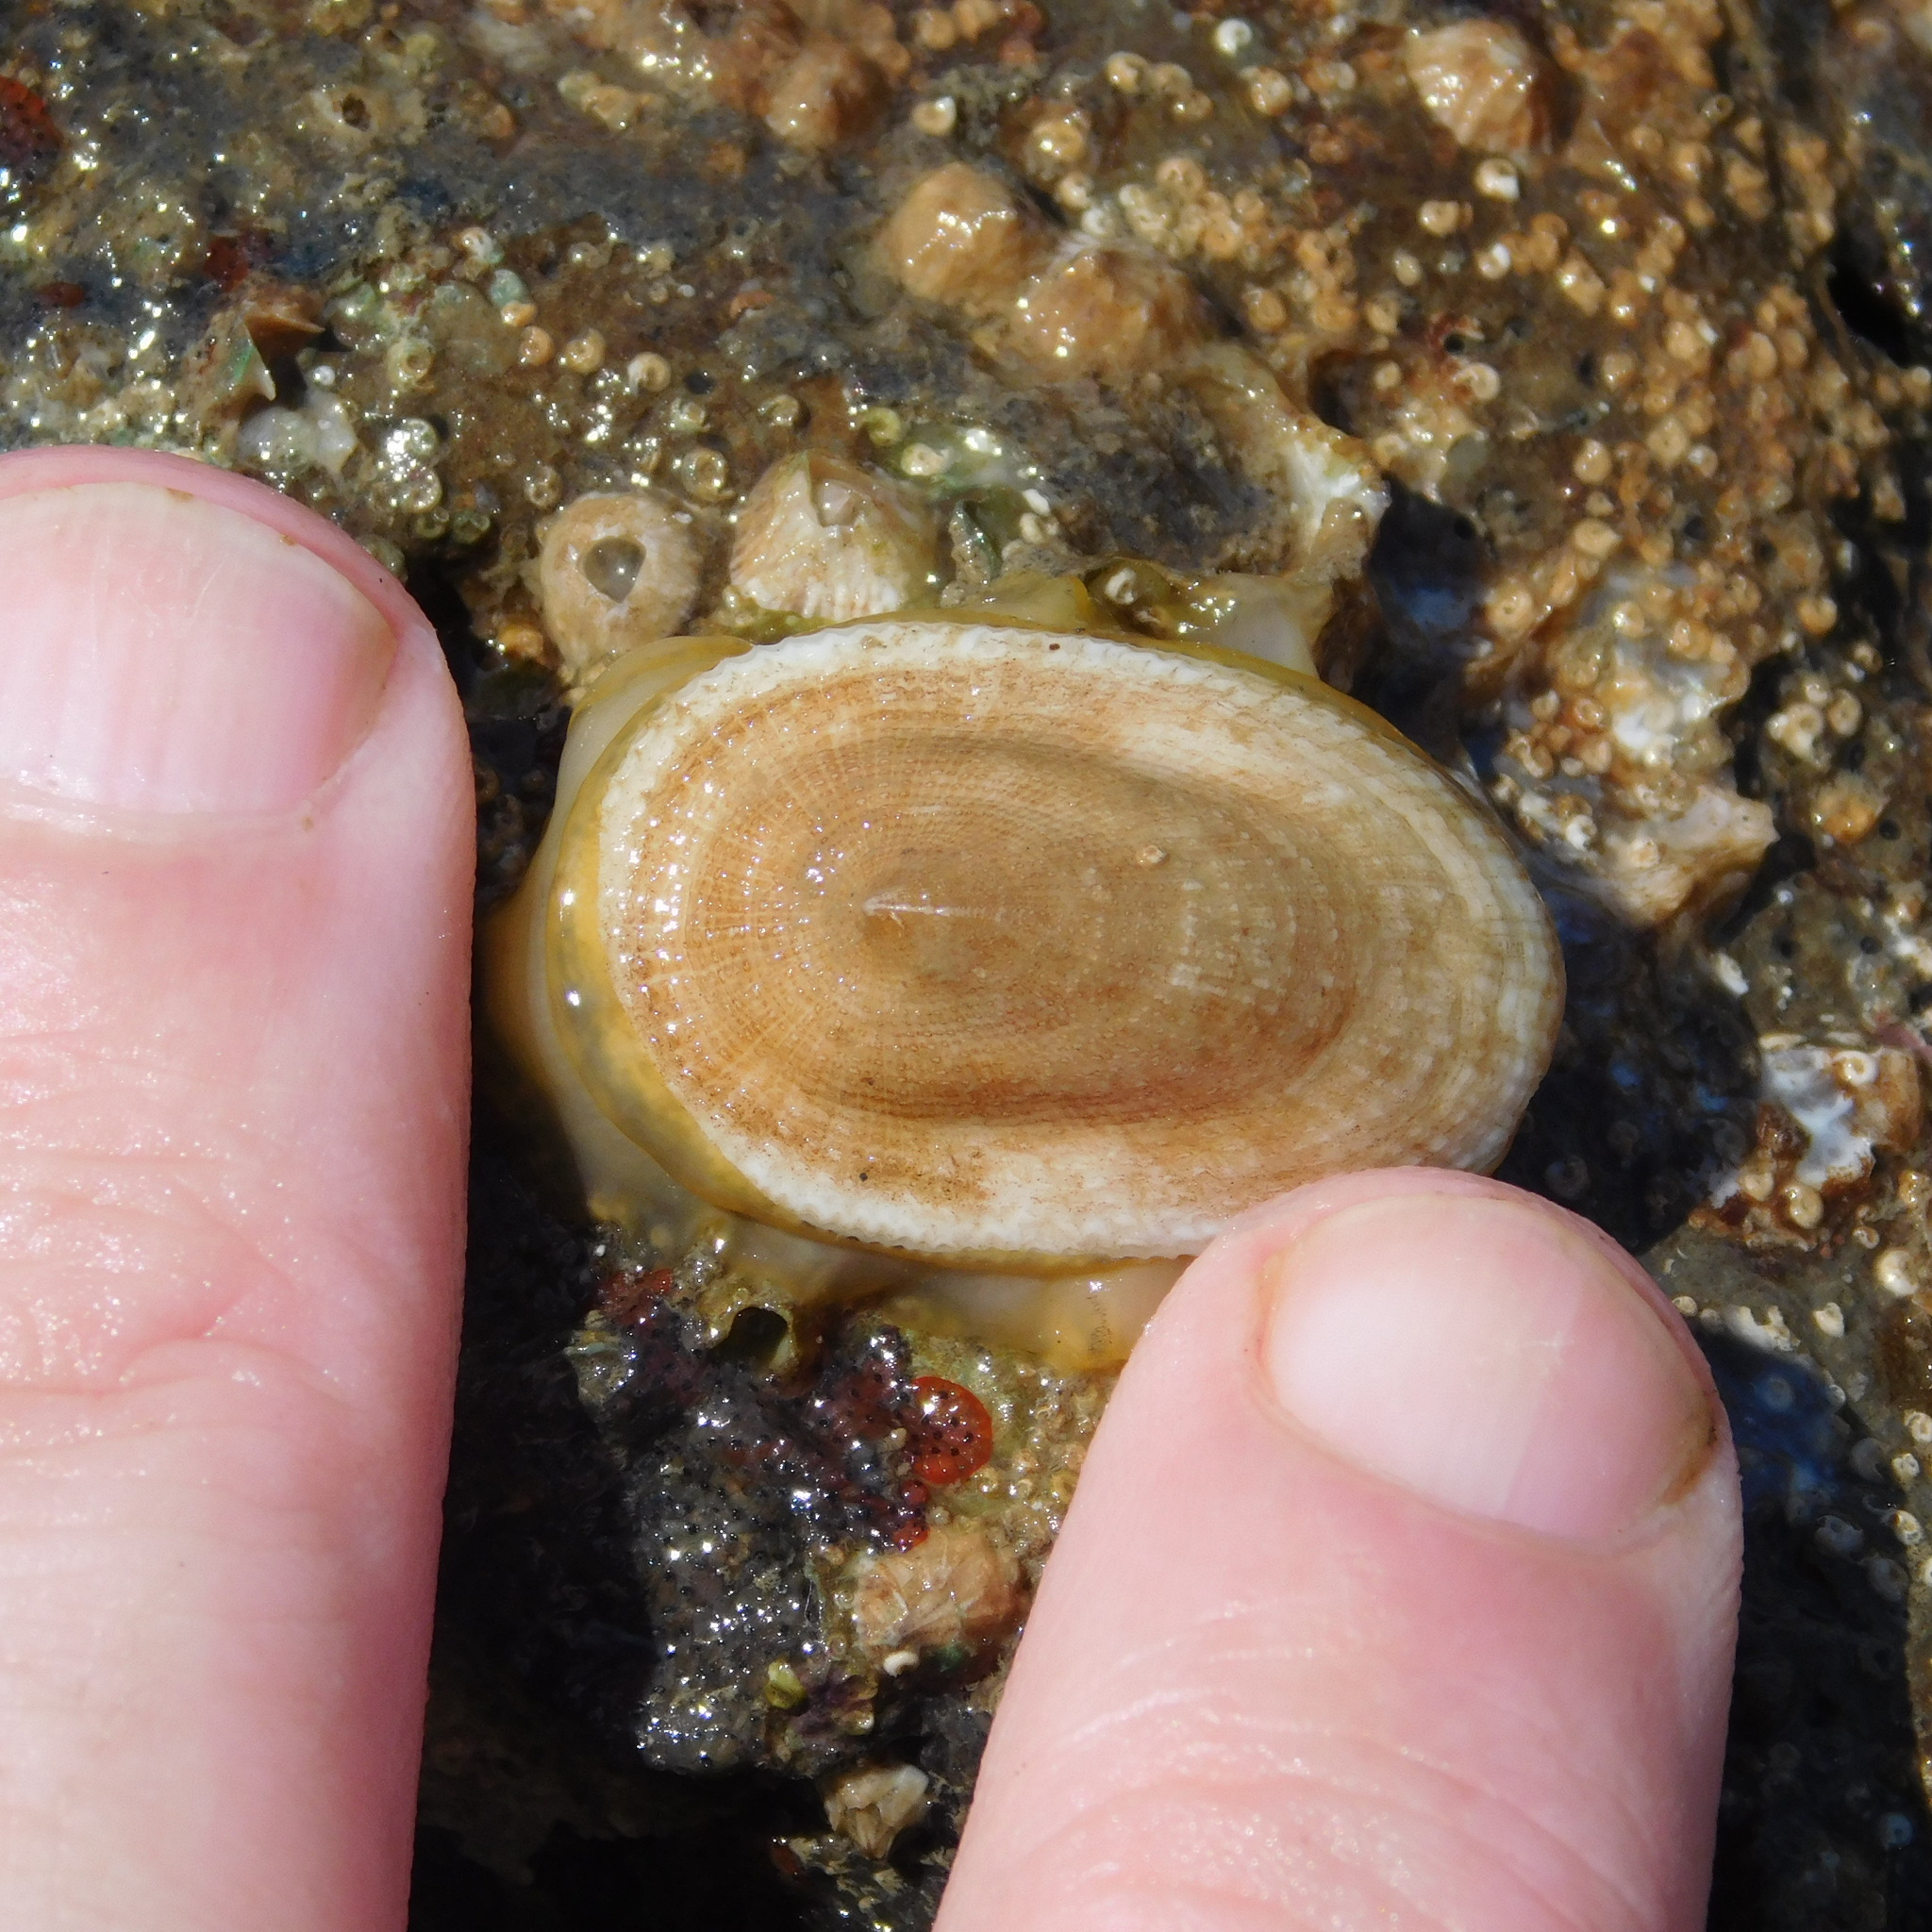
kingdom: Animalia
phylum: Mollusca
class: Gastropoda
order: Lepetellida
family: Fissurellidae
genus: Tugali
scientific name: Tugali elegans
